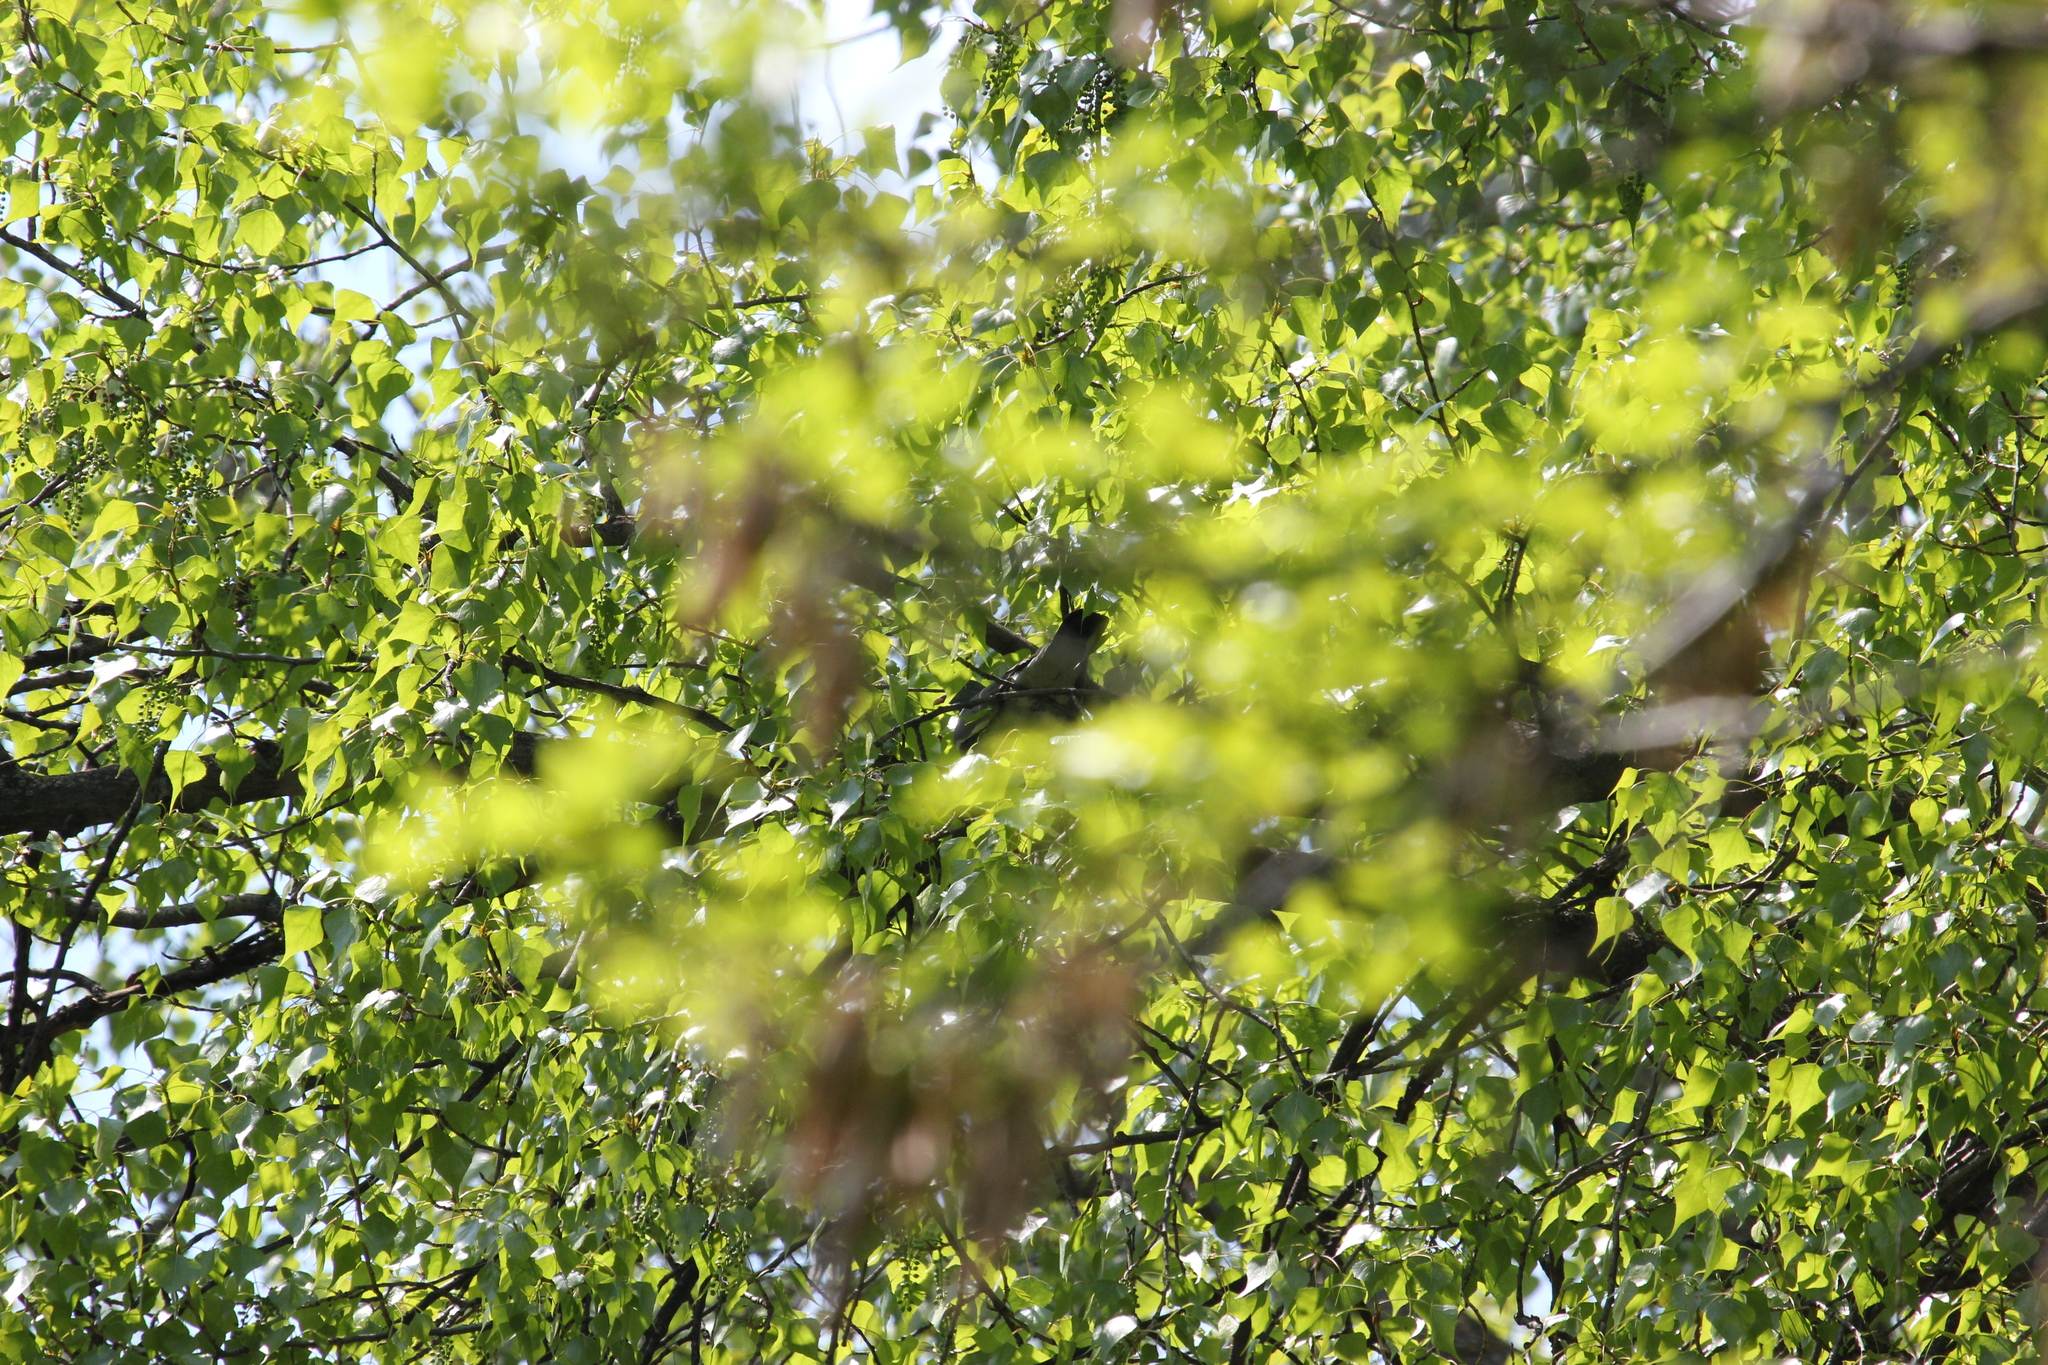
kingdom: Animalia
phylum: Chordata
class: Aves
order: Columbiformes
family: Columbidae
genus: Columba
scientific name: Columba palumbus
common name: Common wood pigeon
